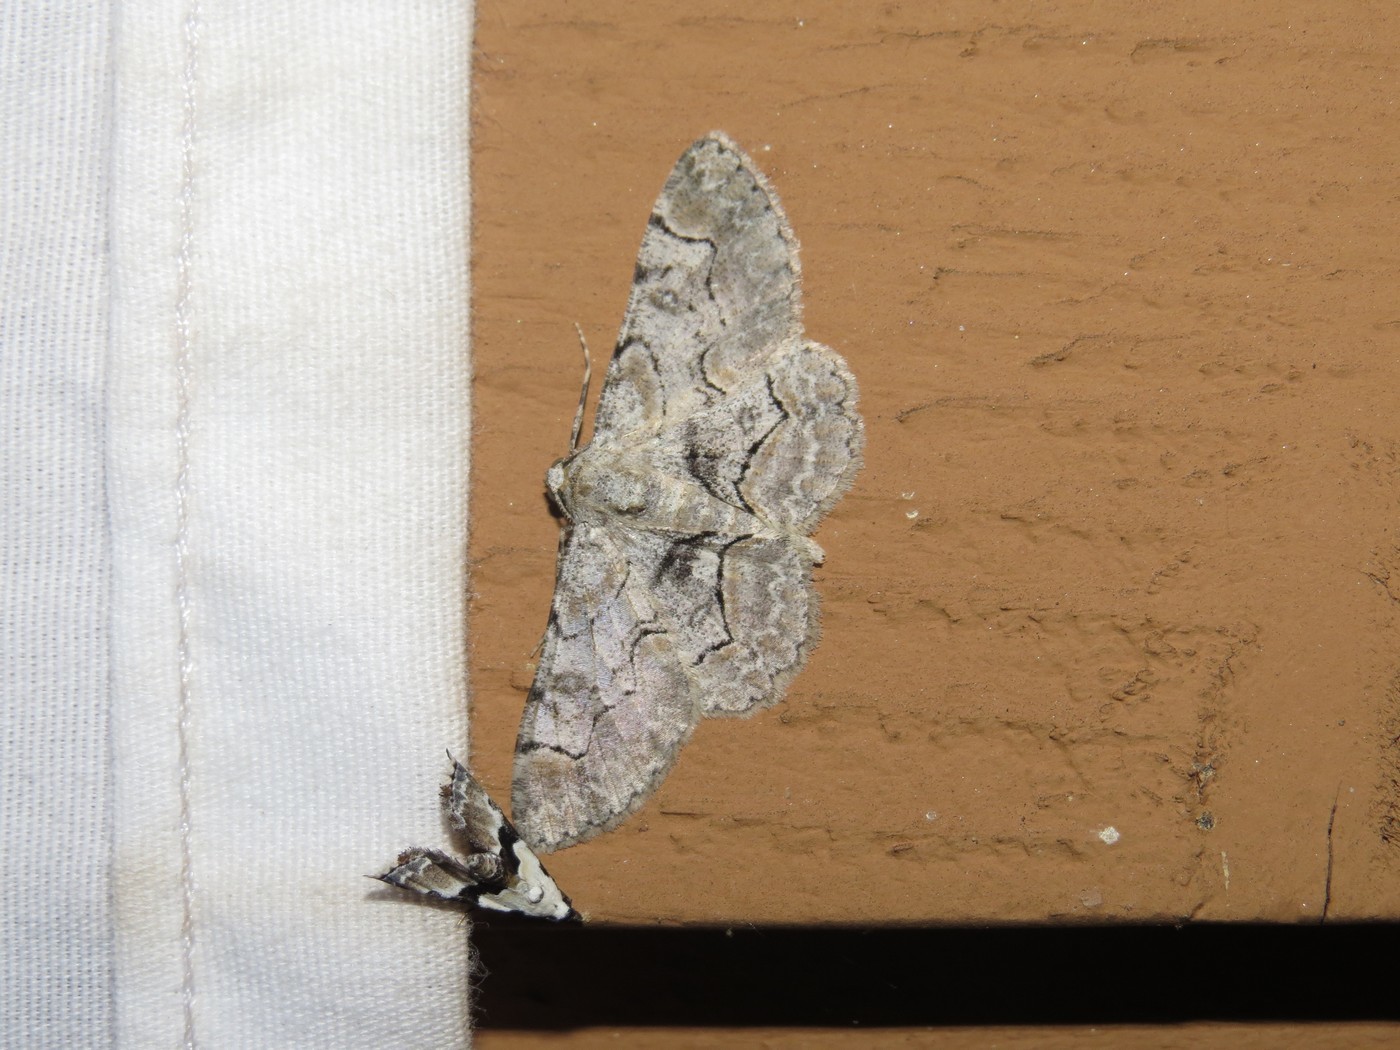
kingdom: Animalia
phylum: Arthropoda
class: Insecta
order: Lepidoptera
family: Geometridae
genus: Iridopsis
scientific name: Iridopsis larvaria
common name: Bent-line gray
